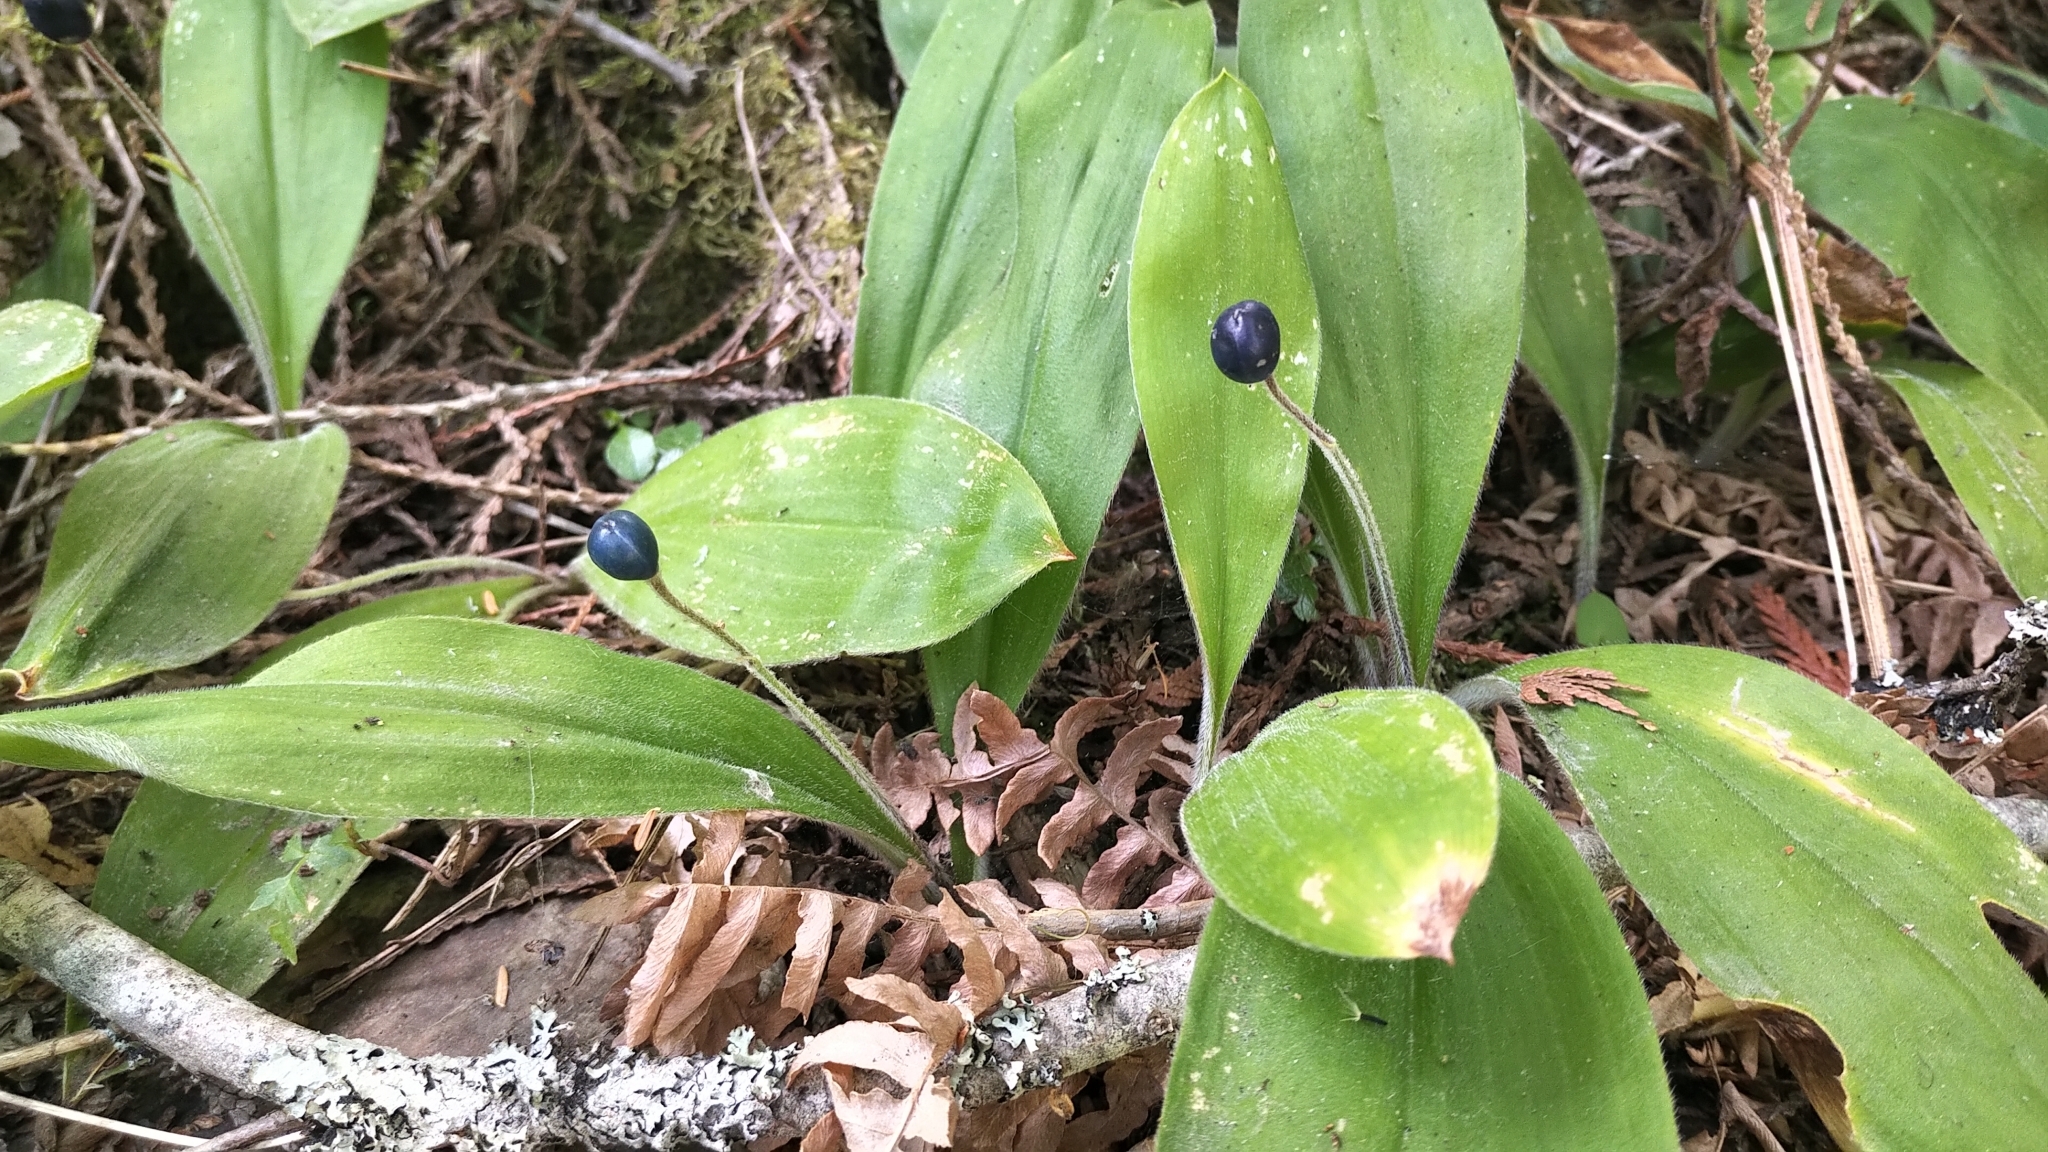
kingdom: Plantae
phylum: Tracheophyta
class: Liliopsida
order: Liliales
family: Liliaceae
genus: Clintonia
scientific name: Clintonia uniflora
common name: Queen's cup
